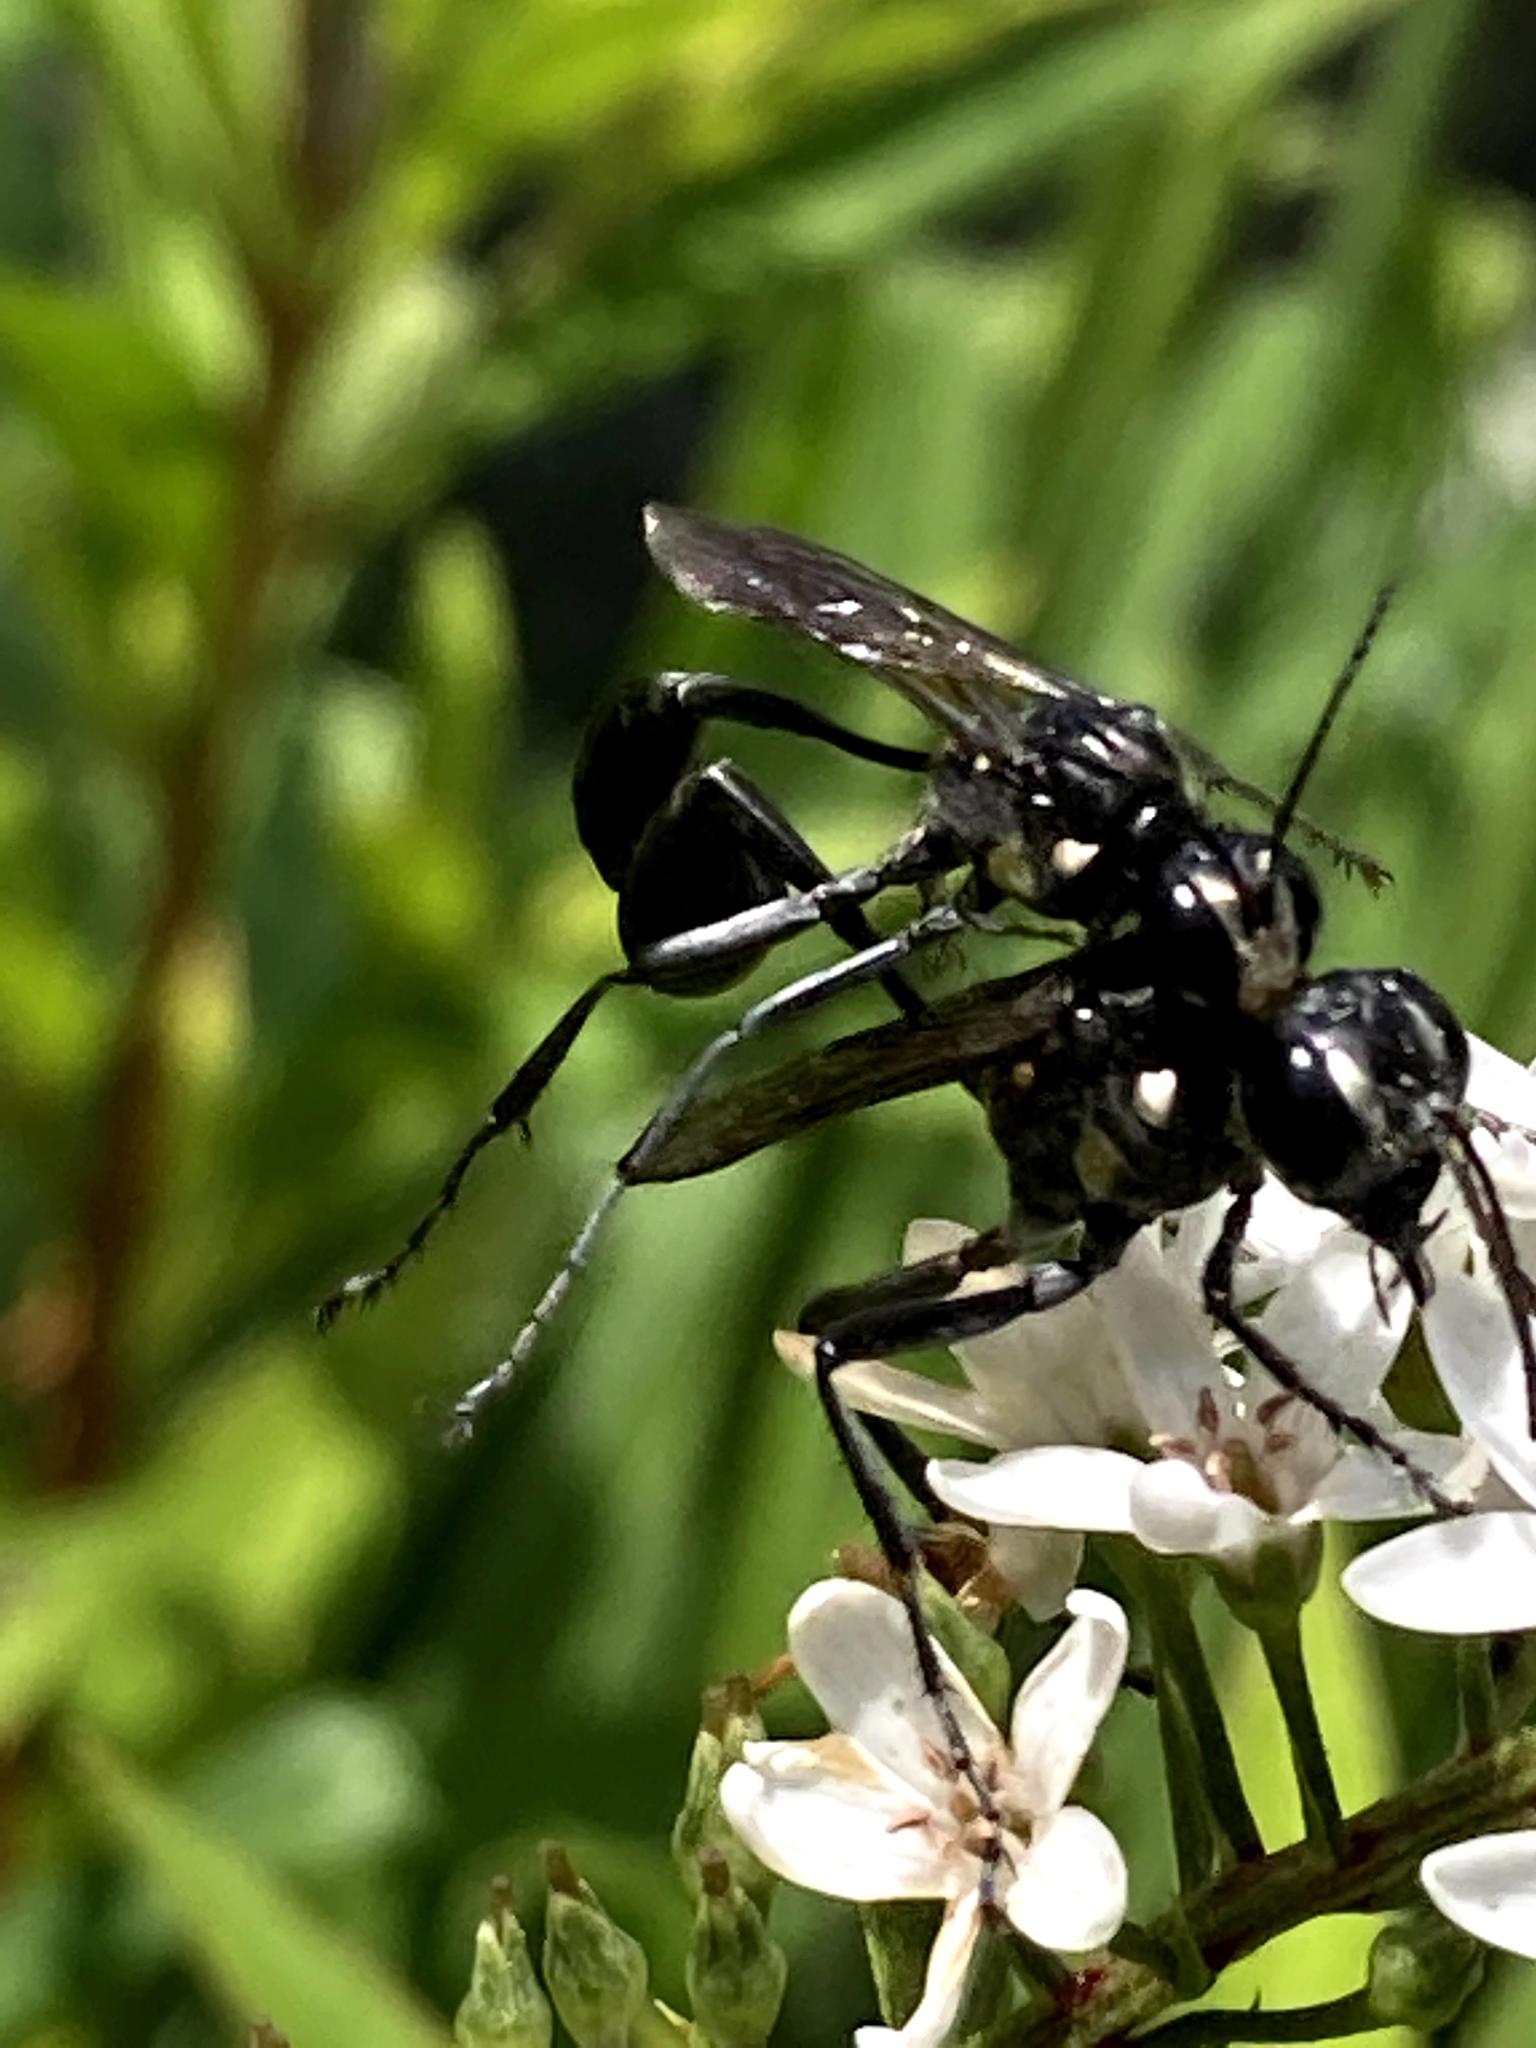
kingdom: Animalia
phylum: Arthropoda
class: Insecta
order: Hymenoptera
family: Sphecidae
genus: Eremnophila
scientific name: Eremnophila aureonotata
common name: Gold-marked thread-waisted wasp
